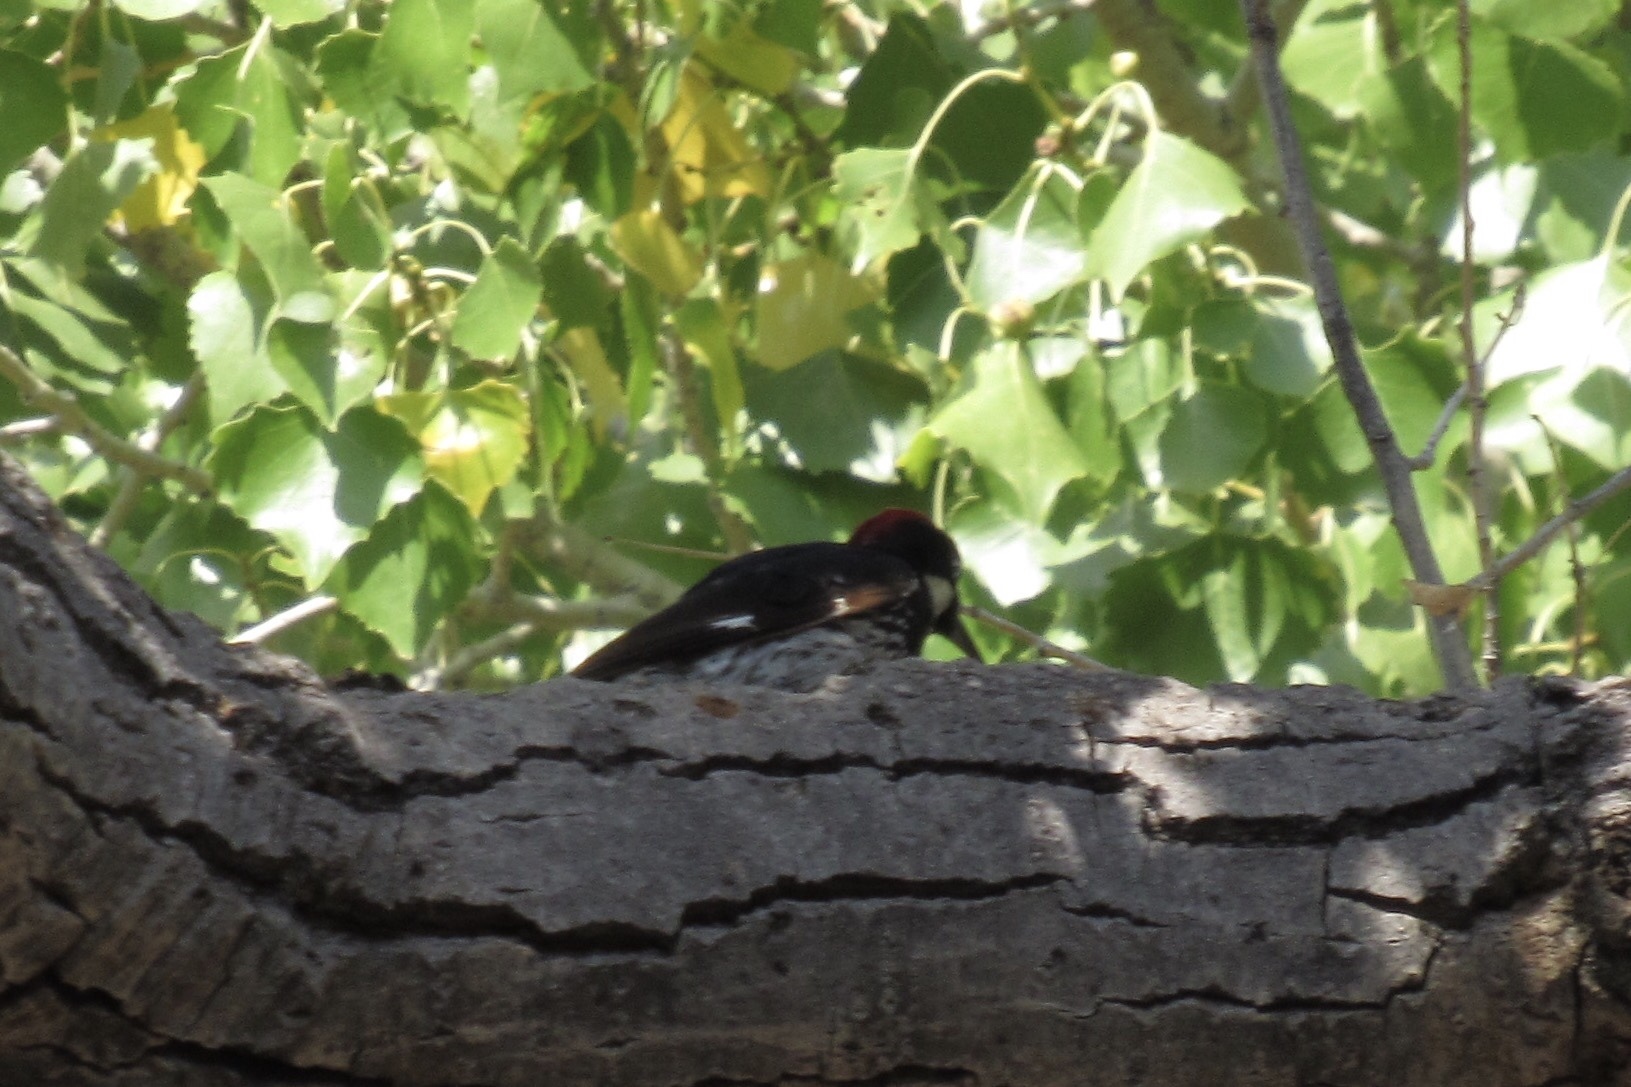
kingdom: Animalia
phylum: Chordata
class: Aves
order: Piciformes
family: Picidae
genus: Melanerpes
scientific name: Melanerpes formicivorus
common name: Acorn woodpecker
